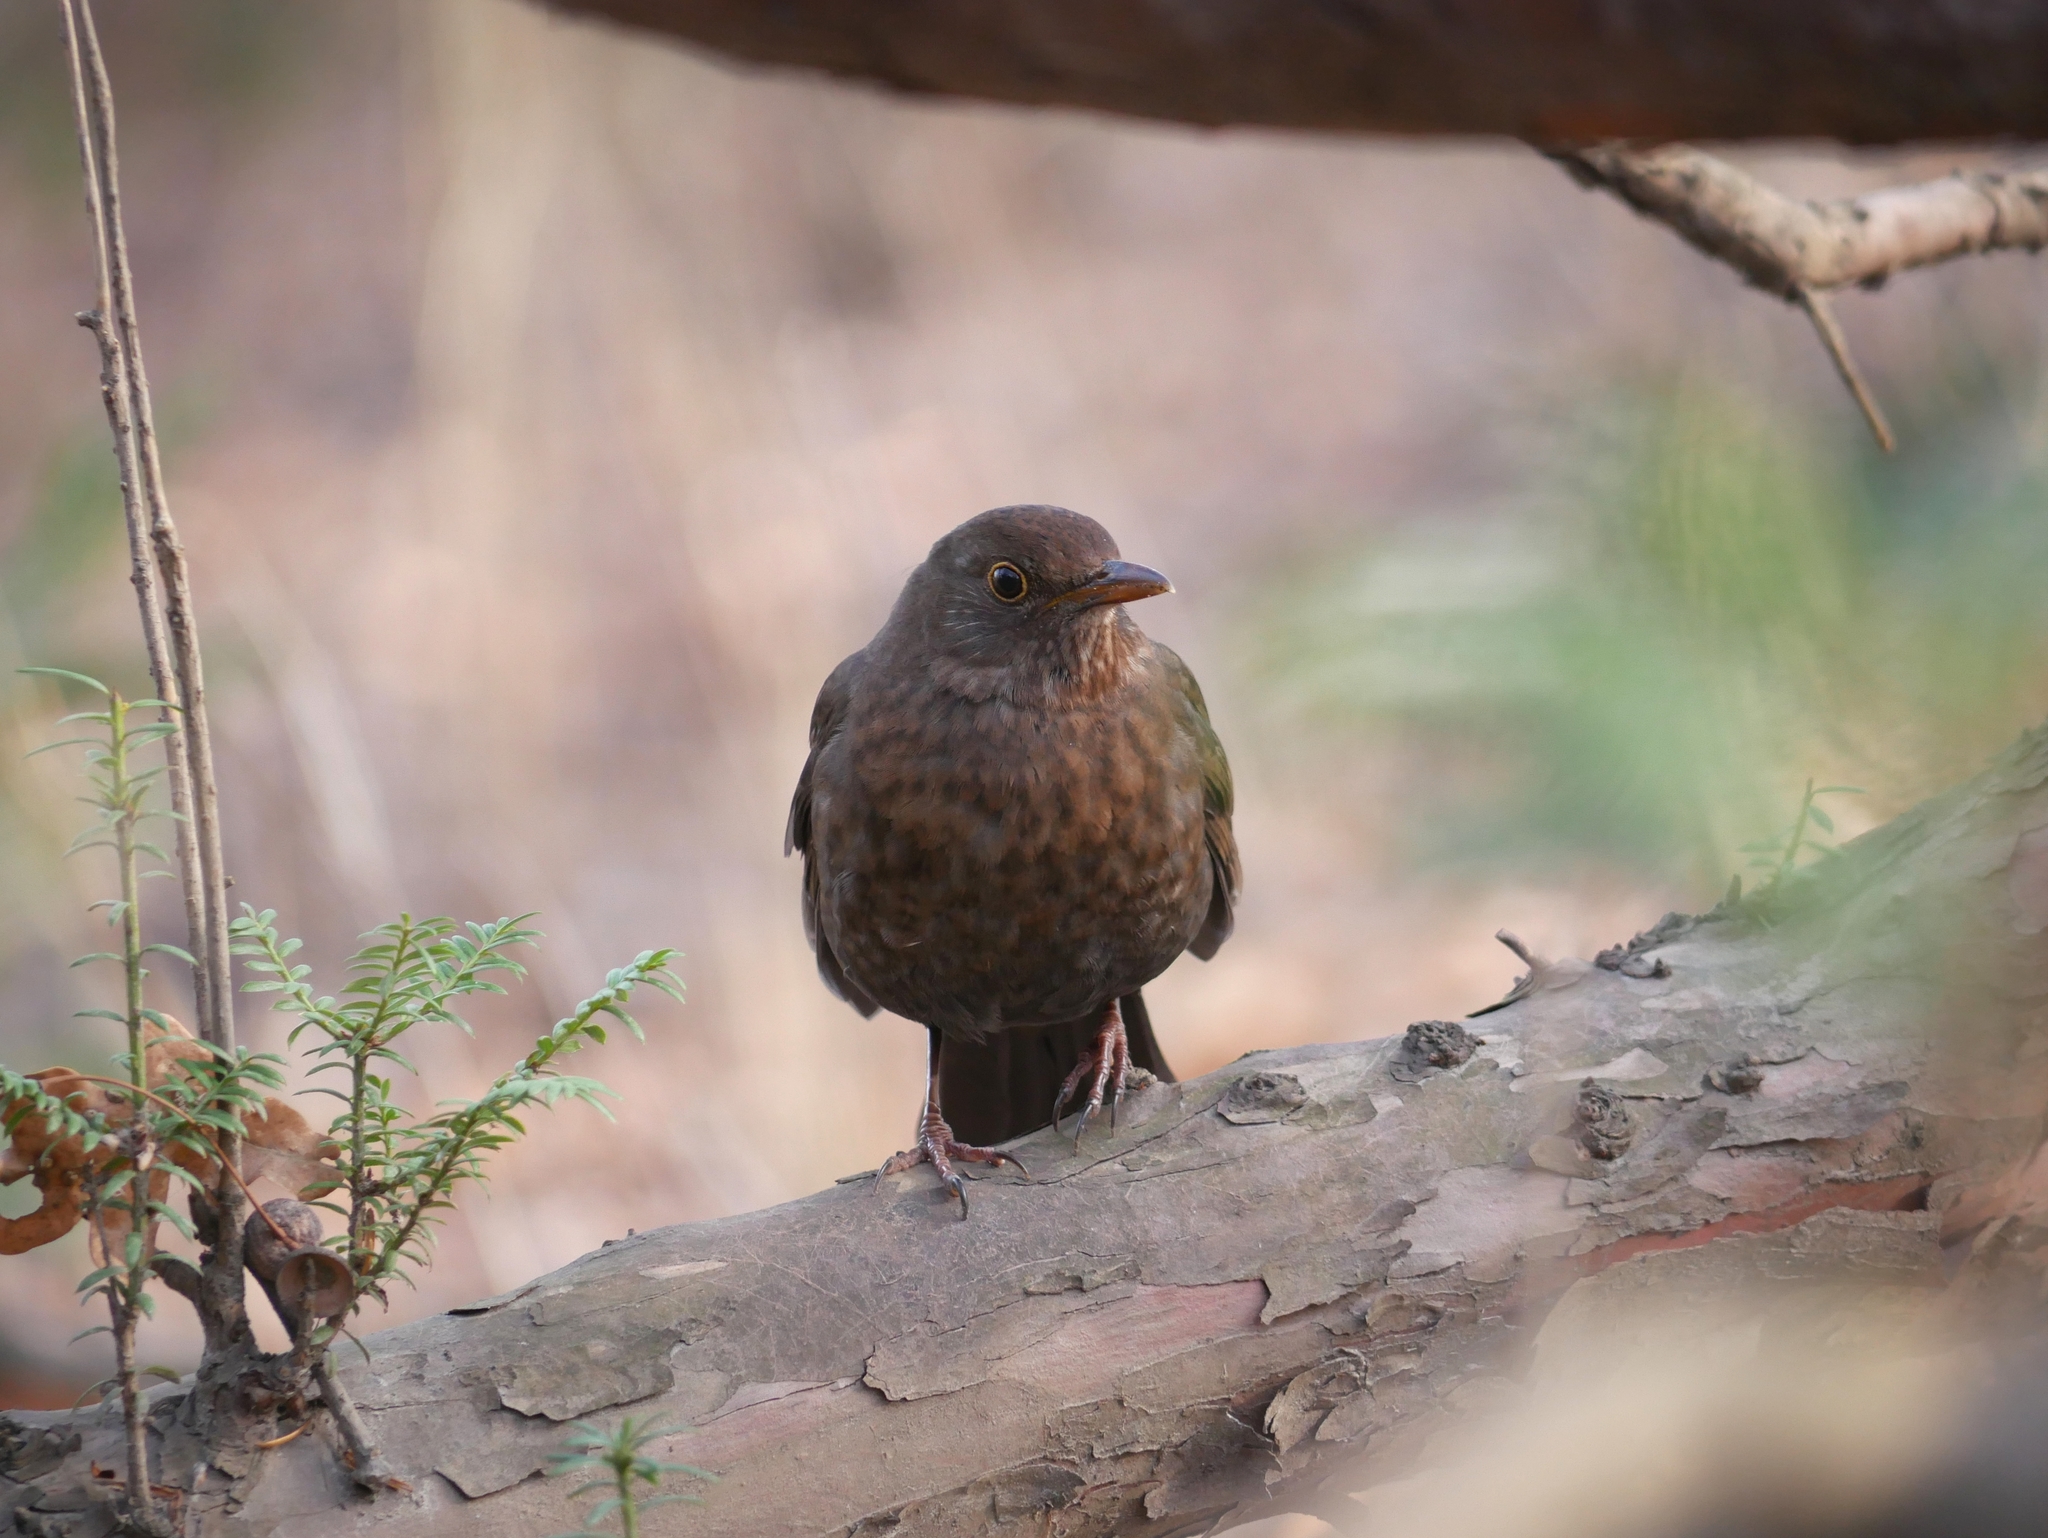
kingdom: Animalia
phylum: Chordata
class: Aves
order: Passeriformes
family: Turdidae
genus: Turdus
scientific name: Turdus merula
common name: Common blackbird
